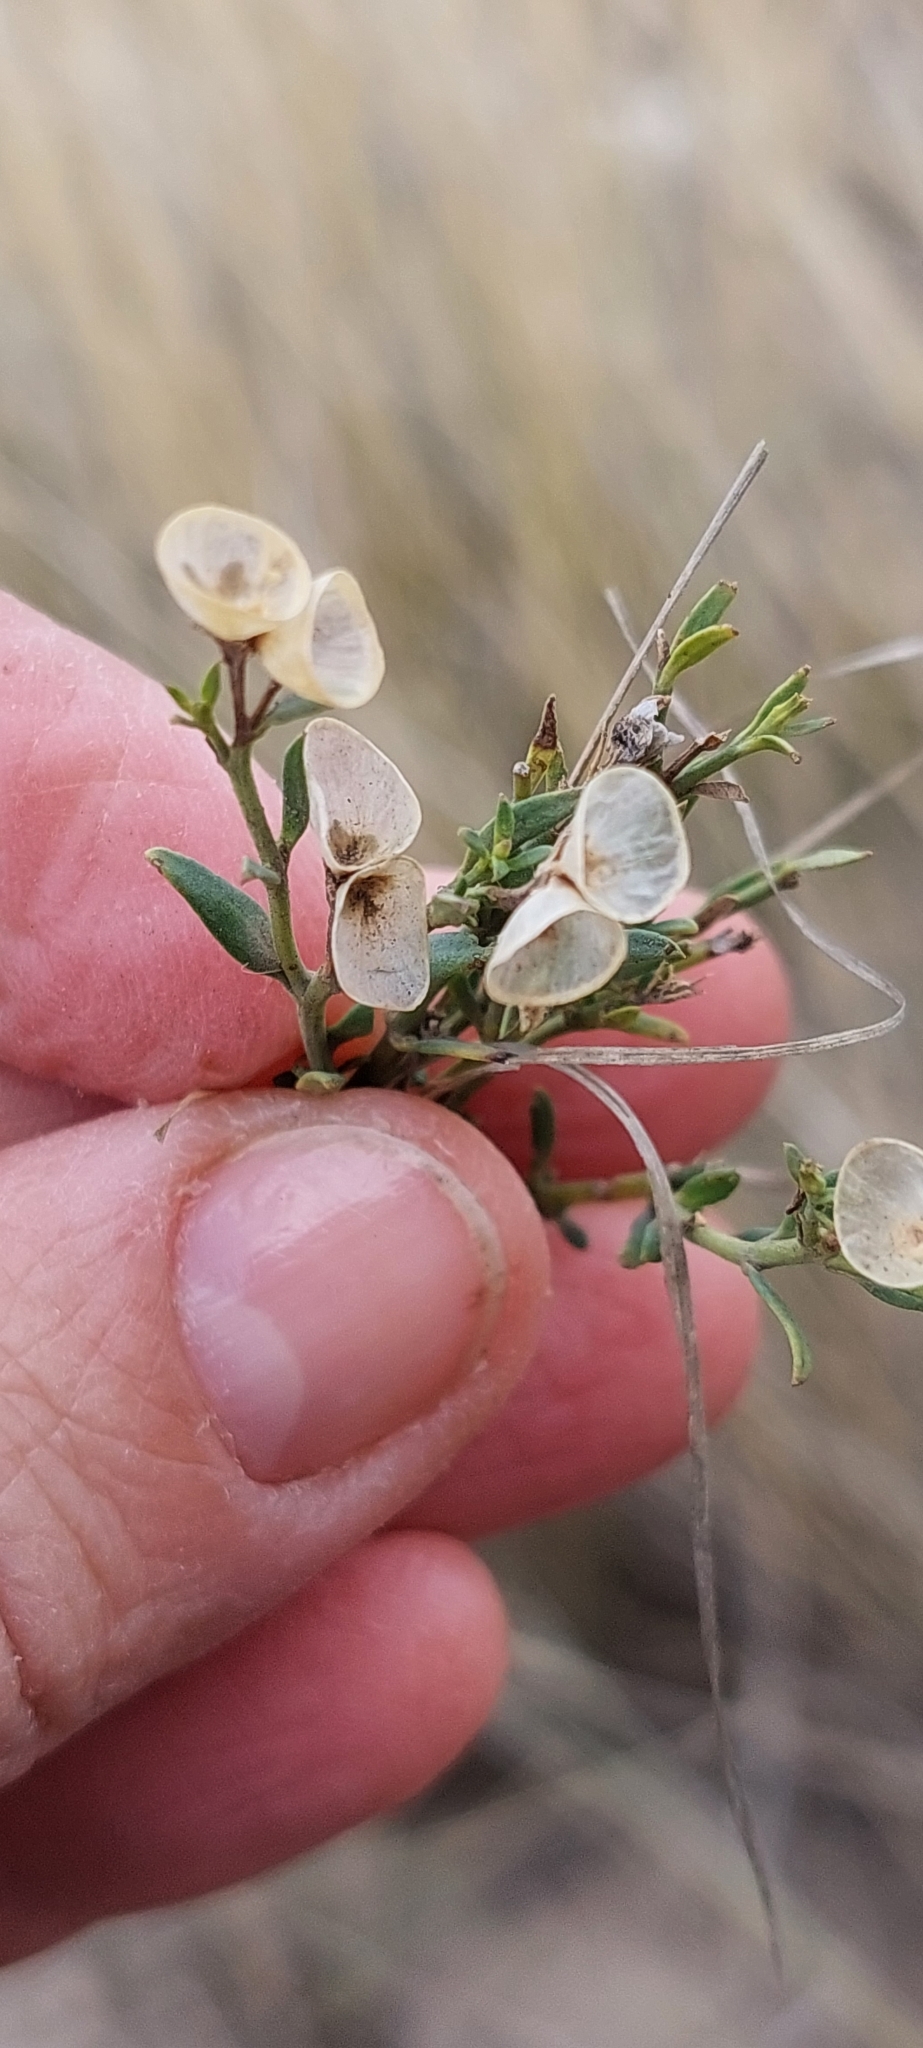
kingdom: Plantae
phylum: Tracheophyta
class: Magnoliopsida
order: Lamiales
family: Oleaceae
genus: Menodora
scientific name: Menodora integrifolia
